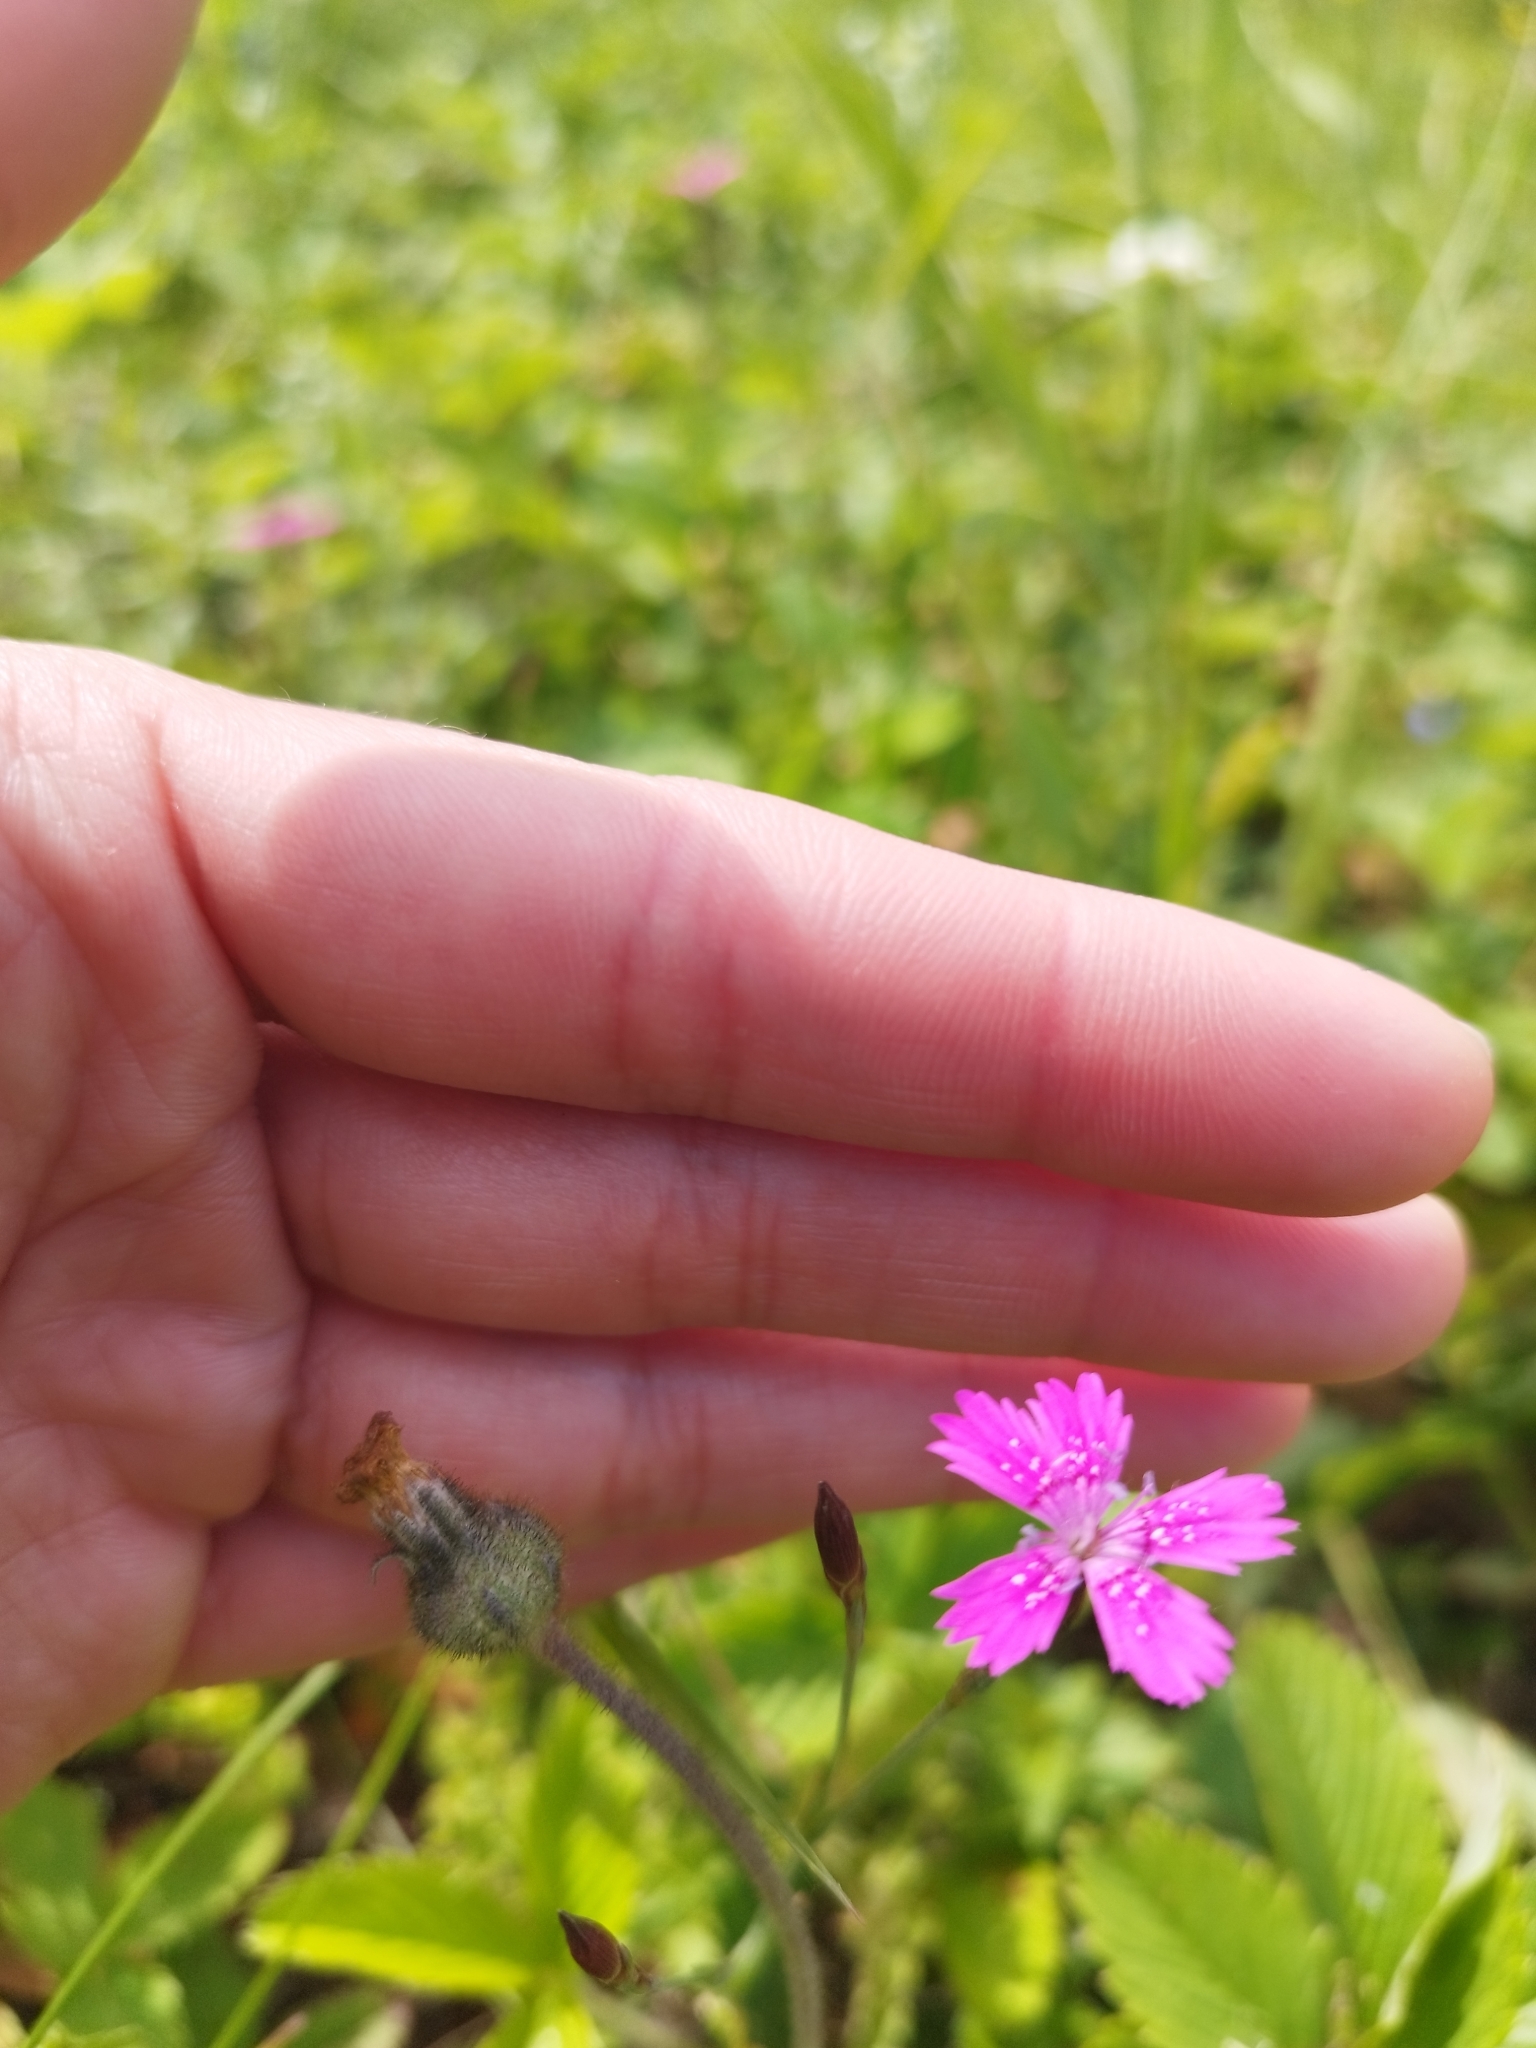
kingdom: Plantae
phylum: Tracheophyta
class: Magnoliopsida
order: Caryophyllales
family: Caryophyllaceae
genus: Dianthus
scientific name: Dianthus deltoides
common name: Maiden pink
